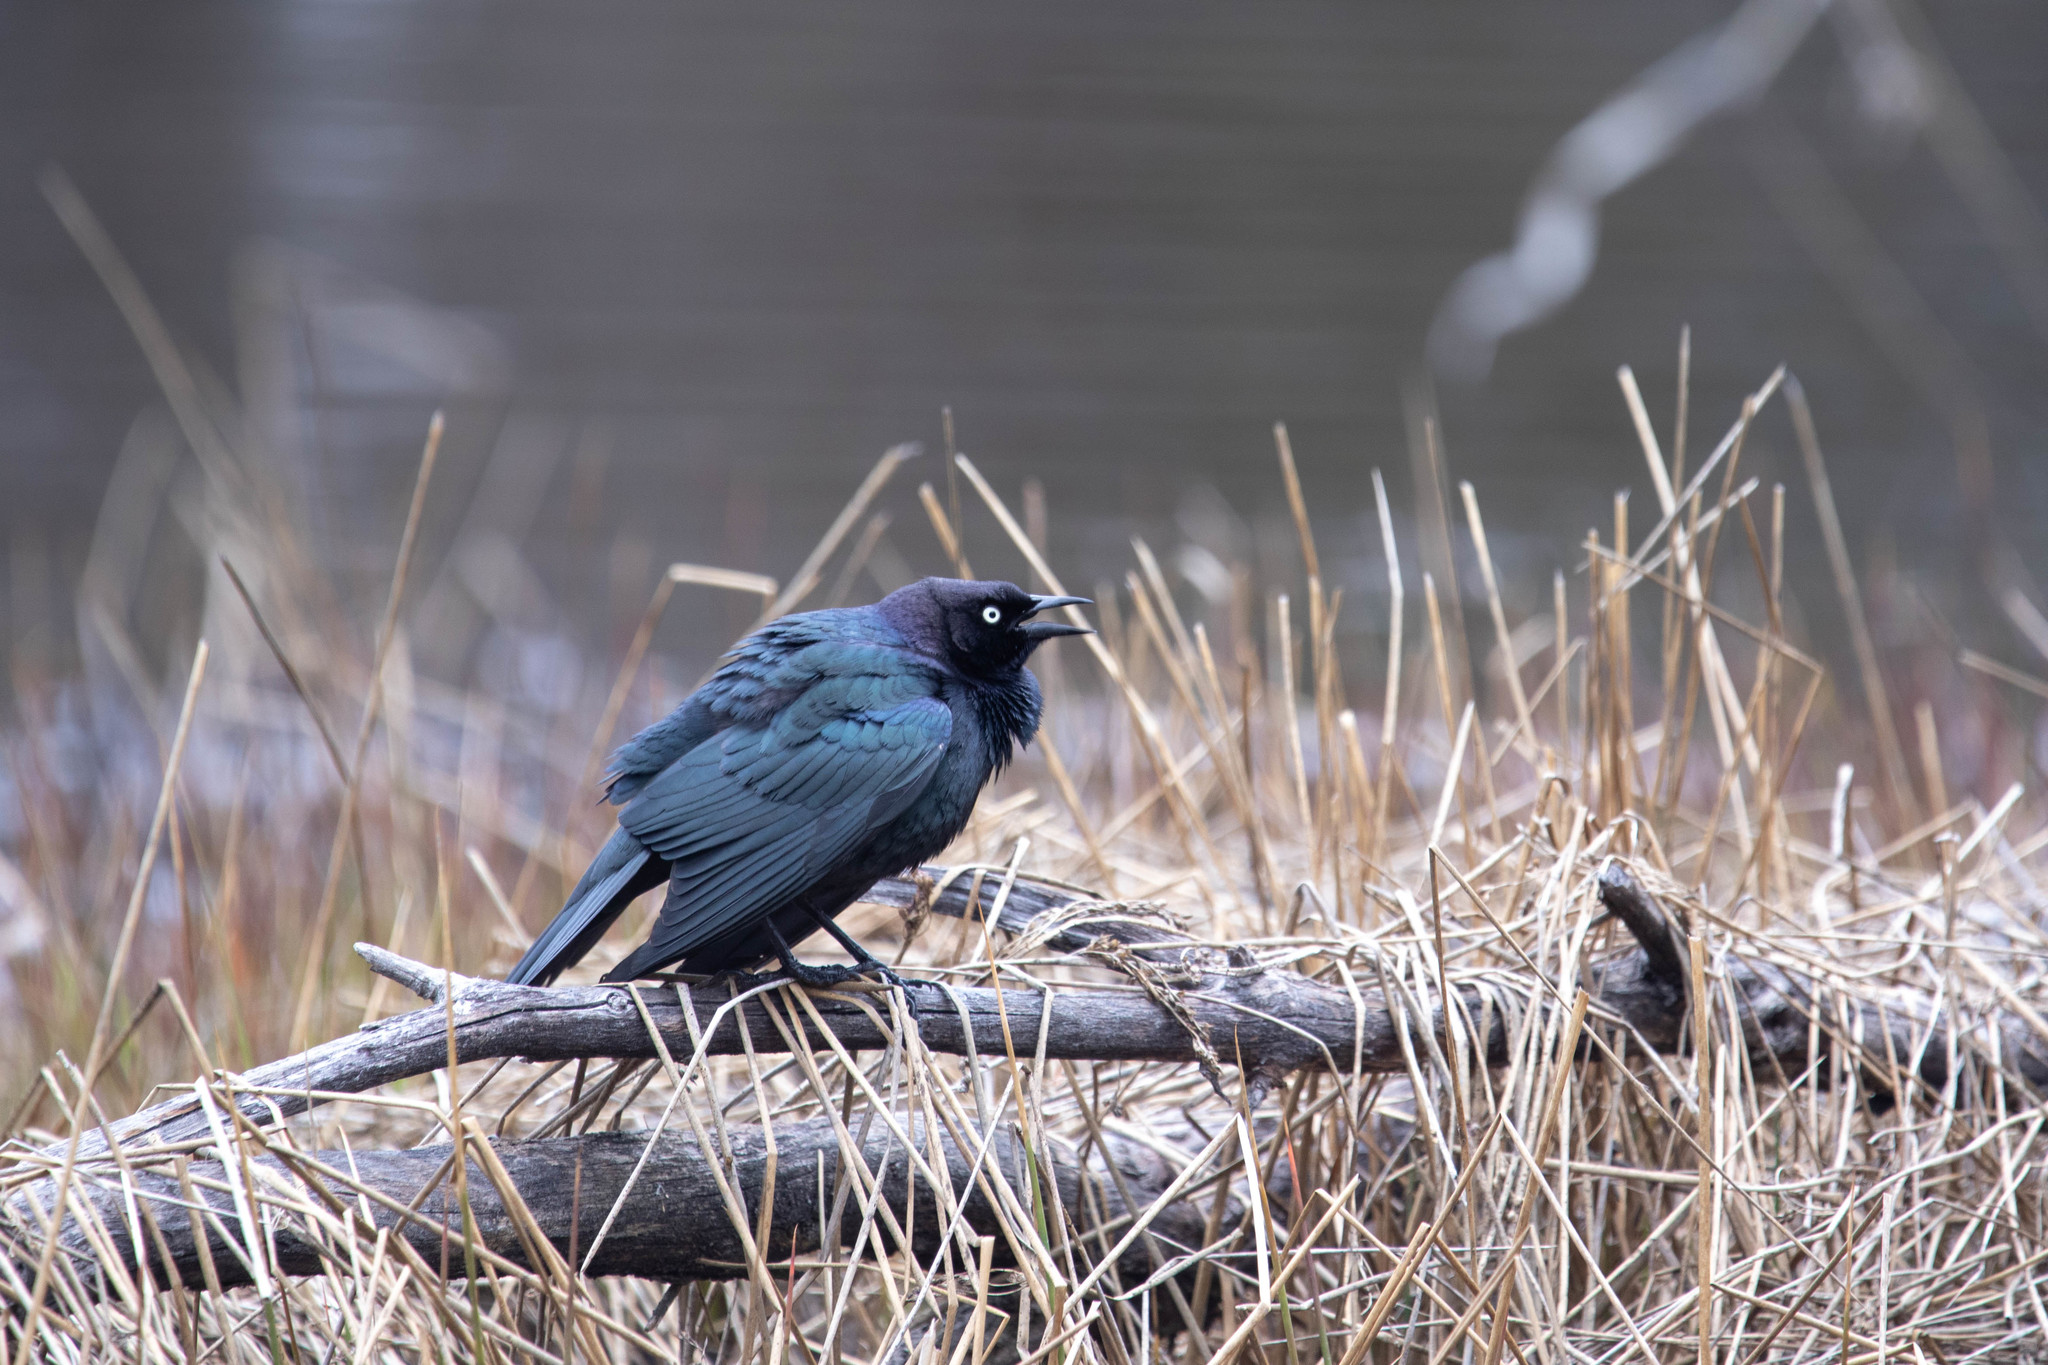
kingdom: Animalia
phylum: Chordata
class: Aves
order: Passeriformes
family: Icteridae
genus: Euphagus
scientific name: Euphagus cyanocephalus
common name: Brewer's blackbird
